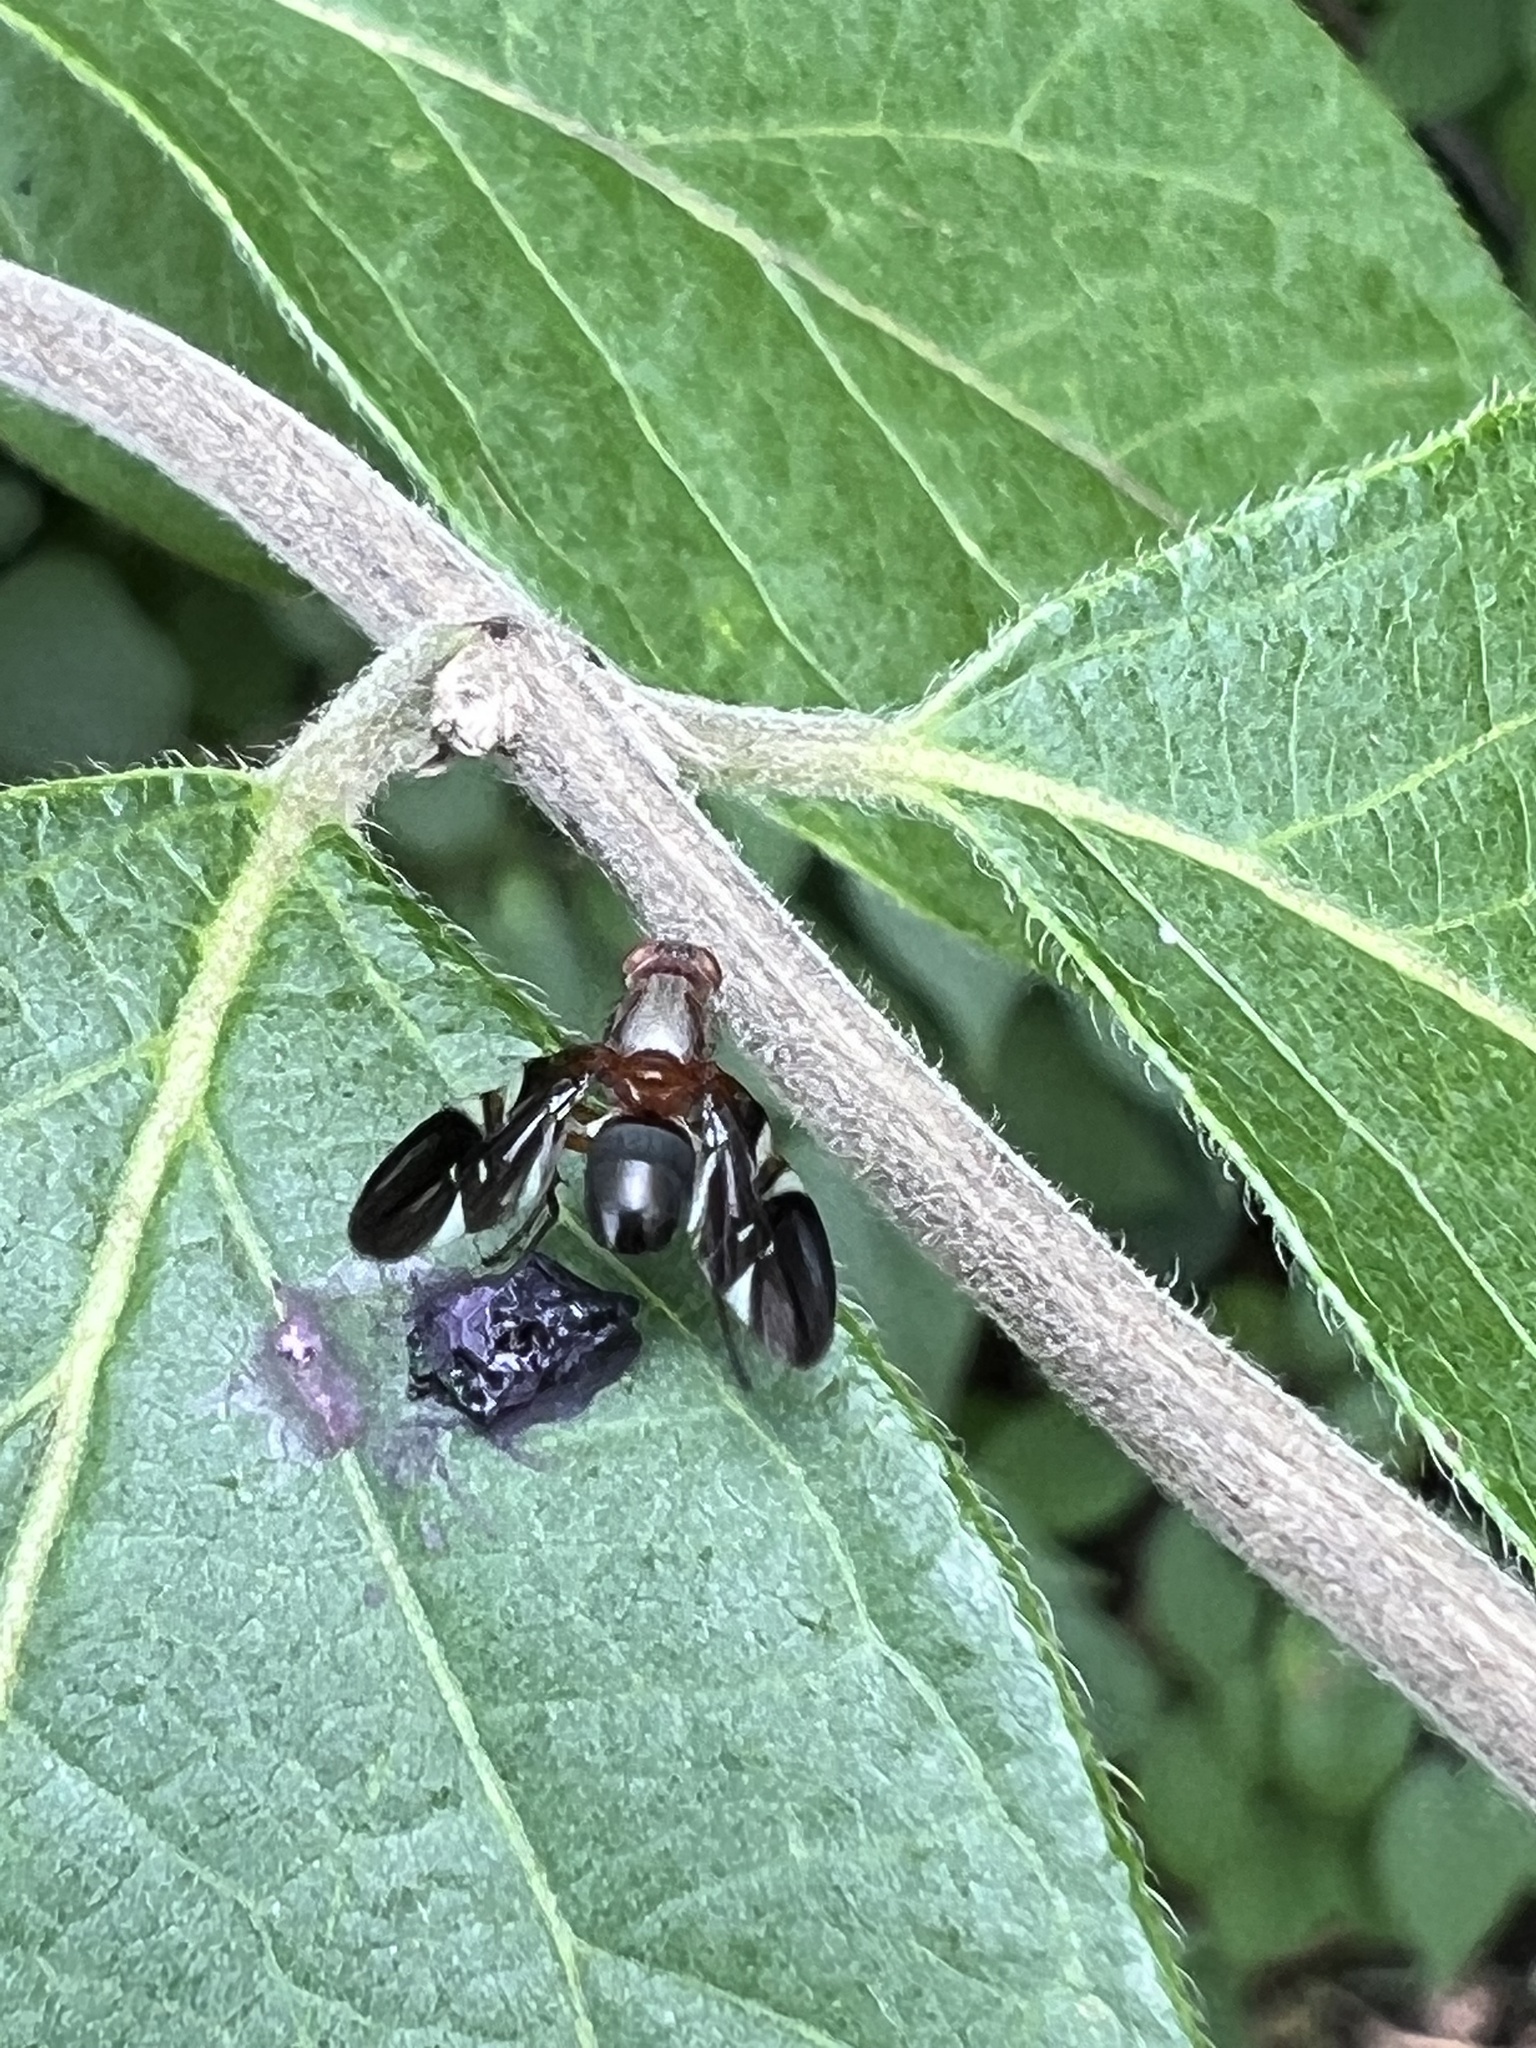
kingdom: Animalia
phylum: Arthropoda
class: Insecta
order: Diptera
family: Ulidiidae
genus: Delphinia
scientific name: Delphinia picta
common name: Common picture-winged fly
